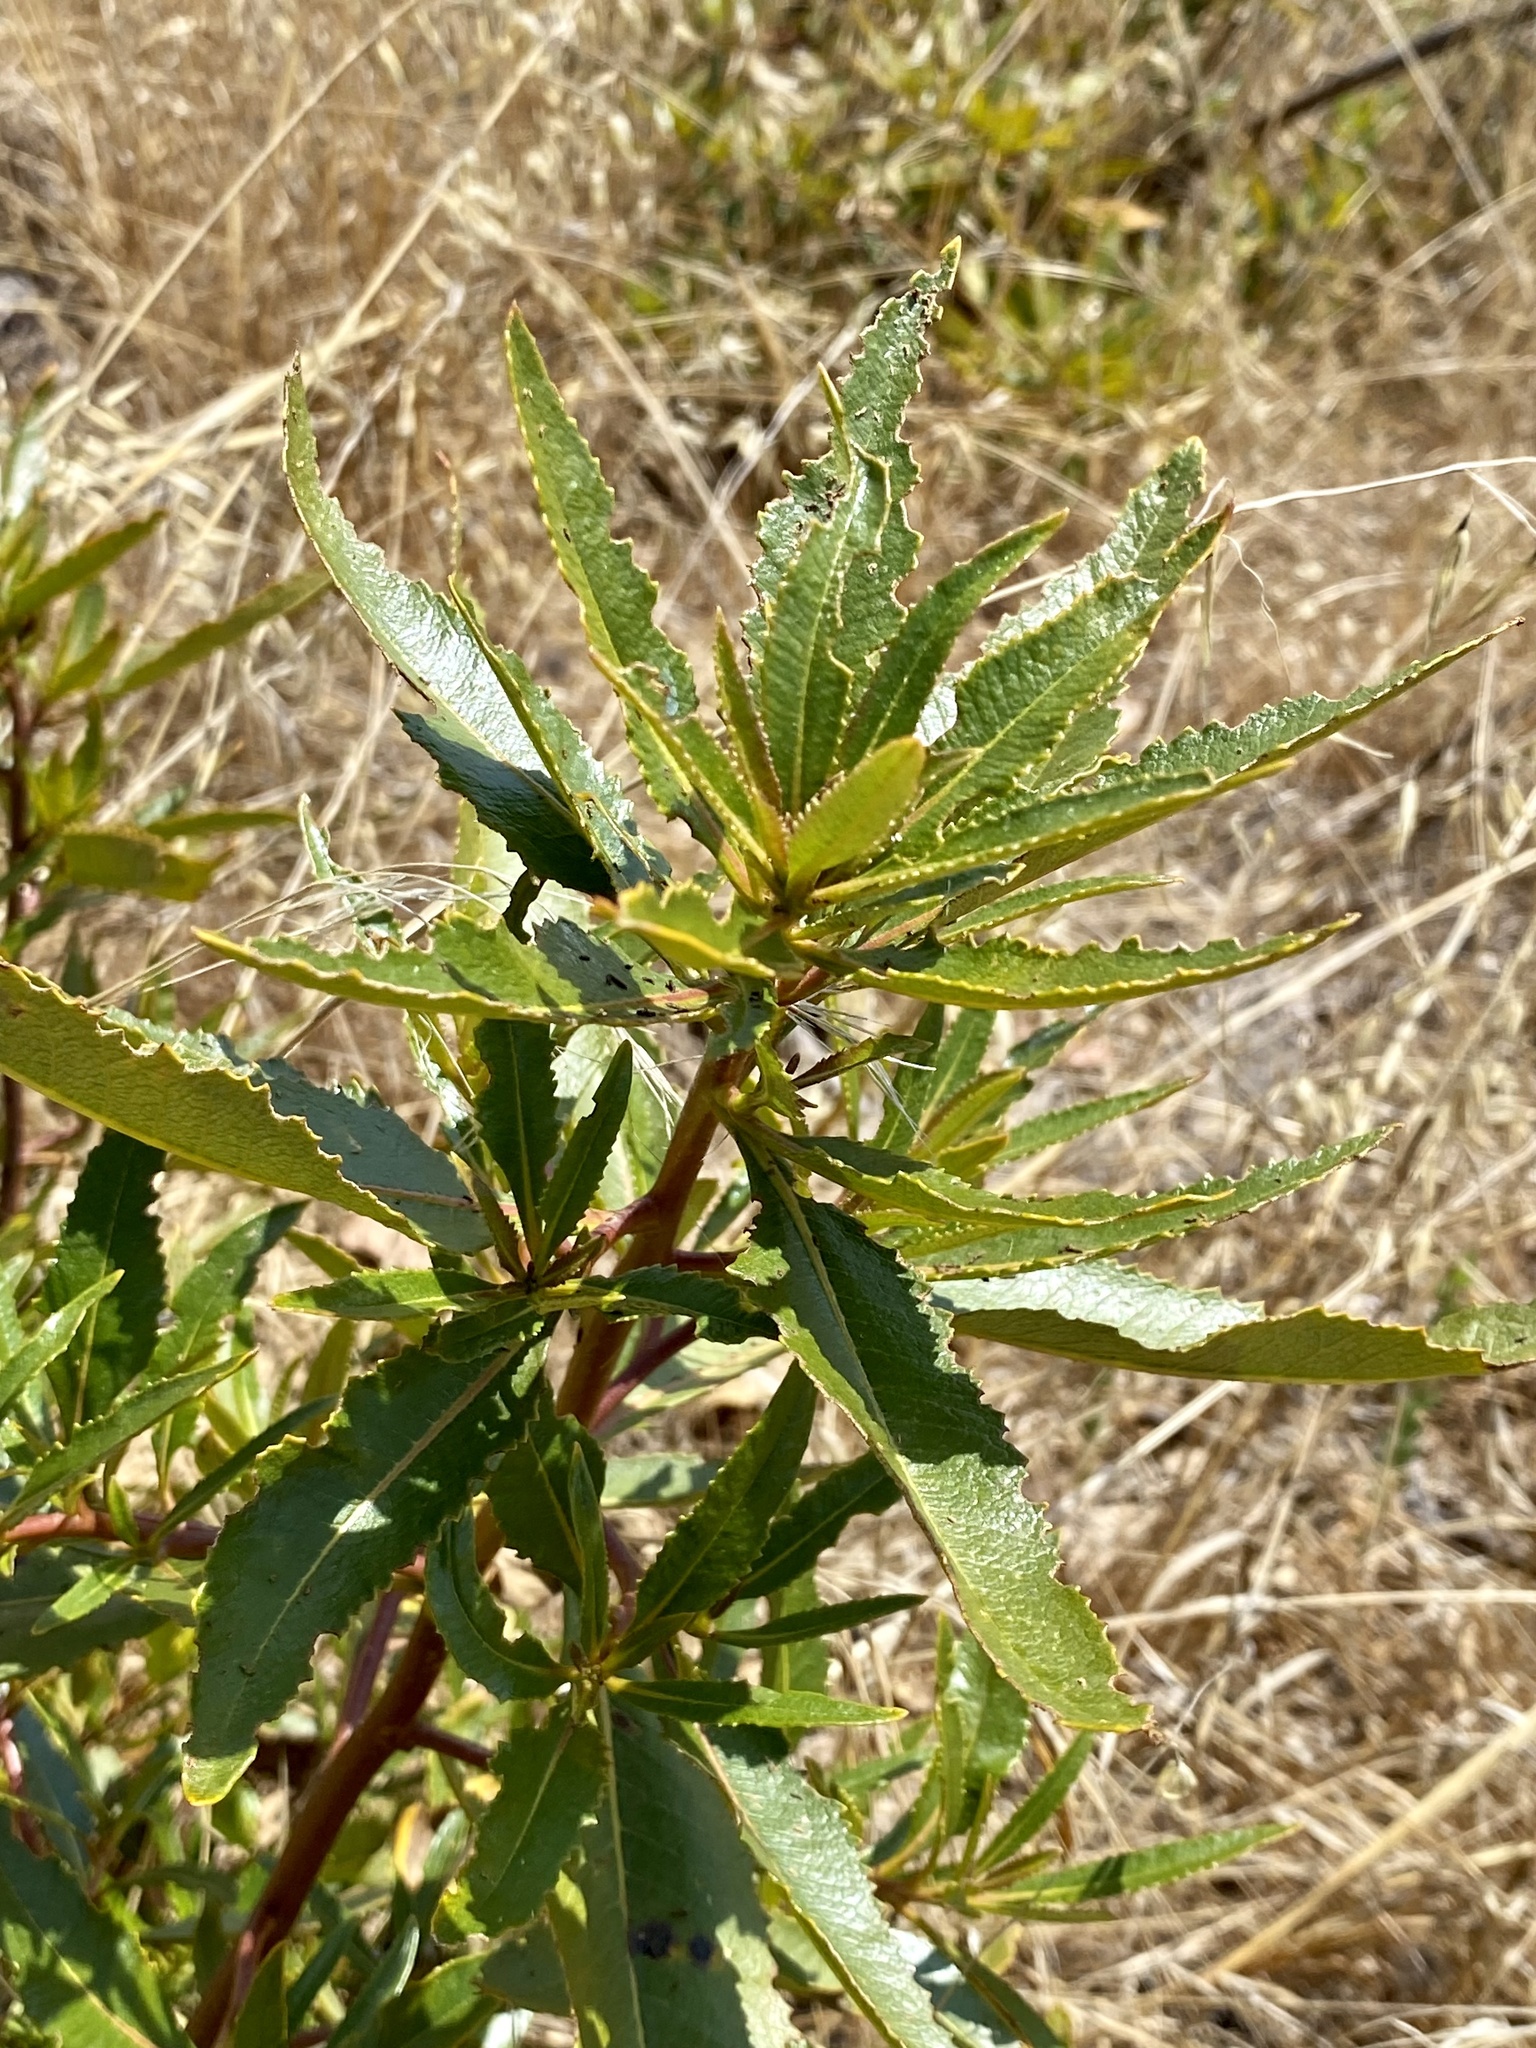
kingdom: Plantae
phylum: Tracheophyta
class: Magnoliopsida
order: Boraginales
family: Namaceae
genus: Eriodictyon
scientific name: Eriodictyon californicum
